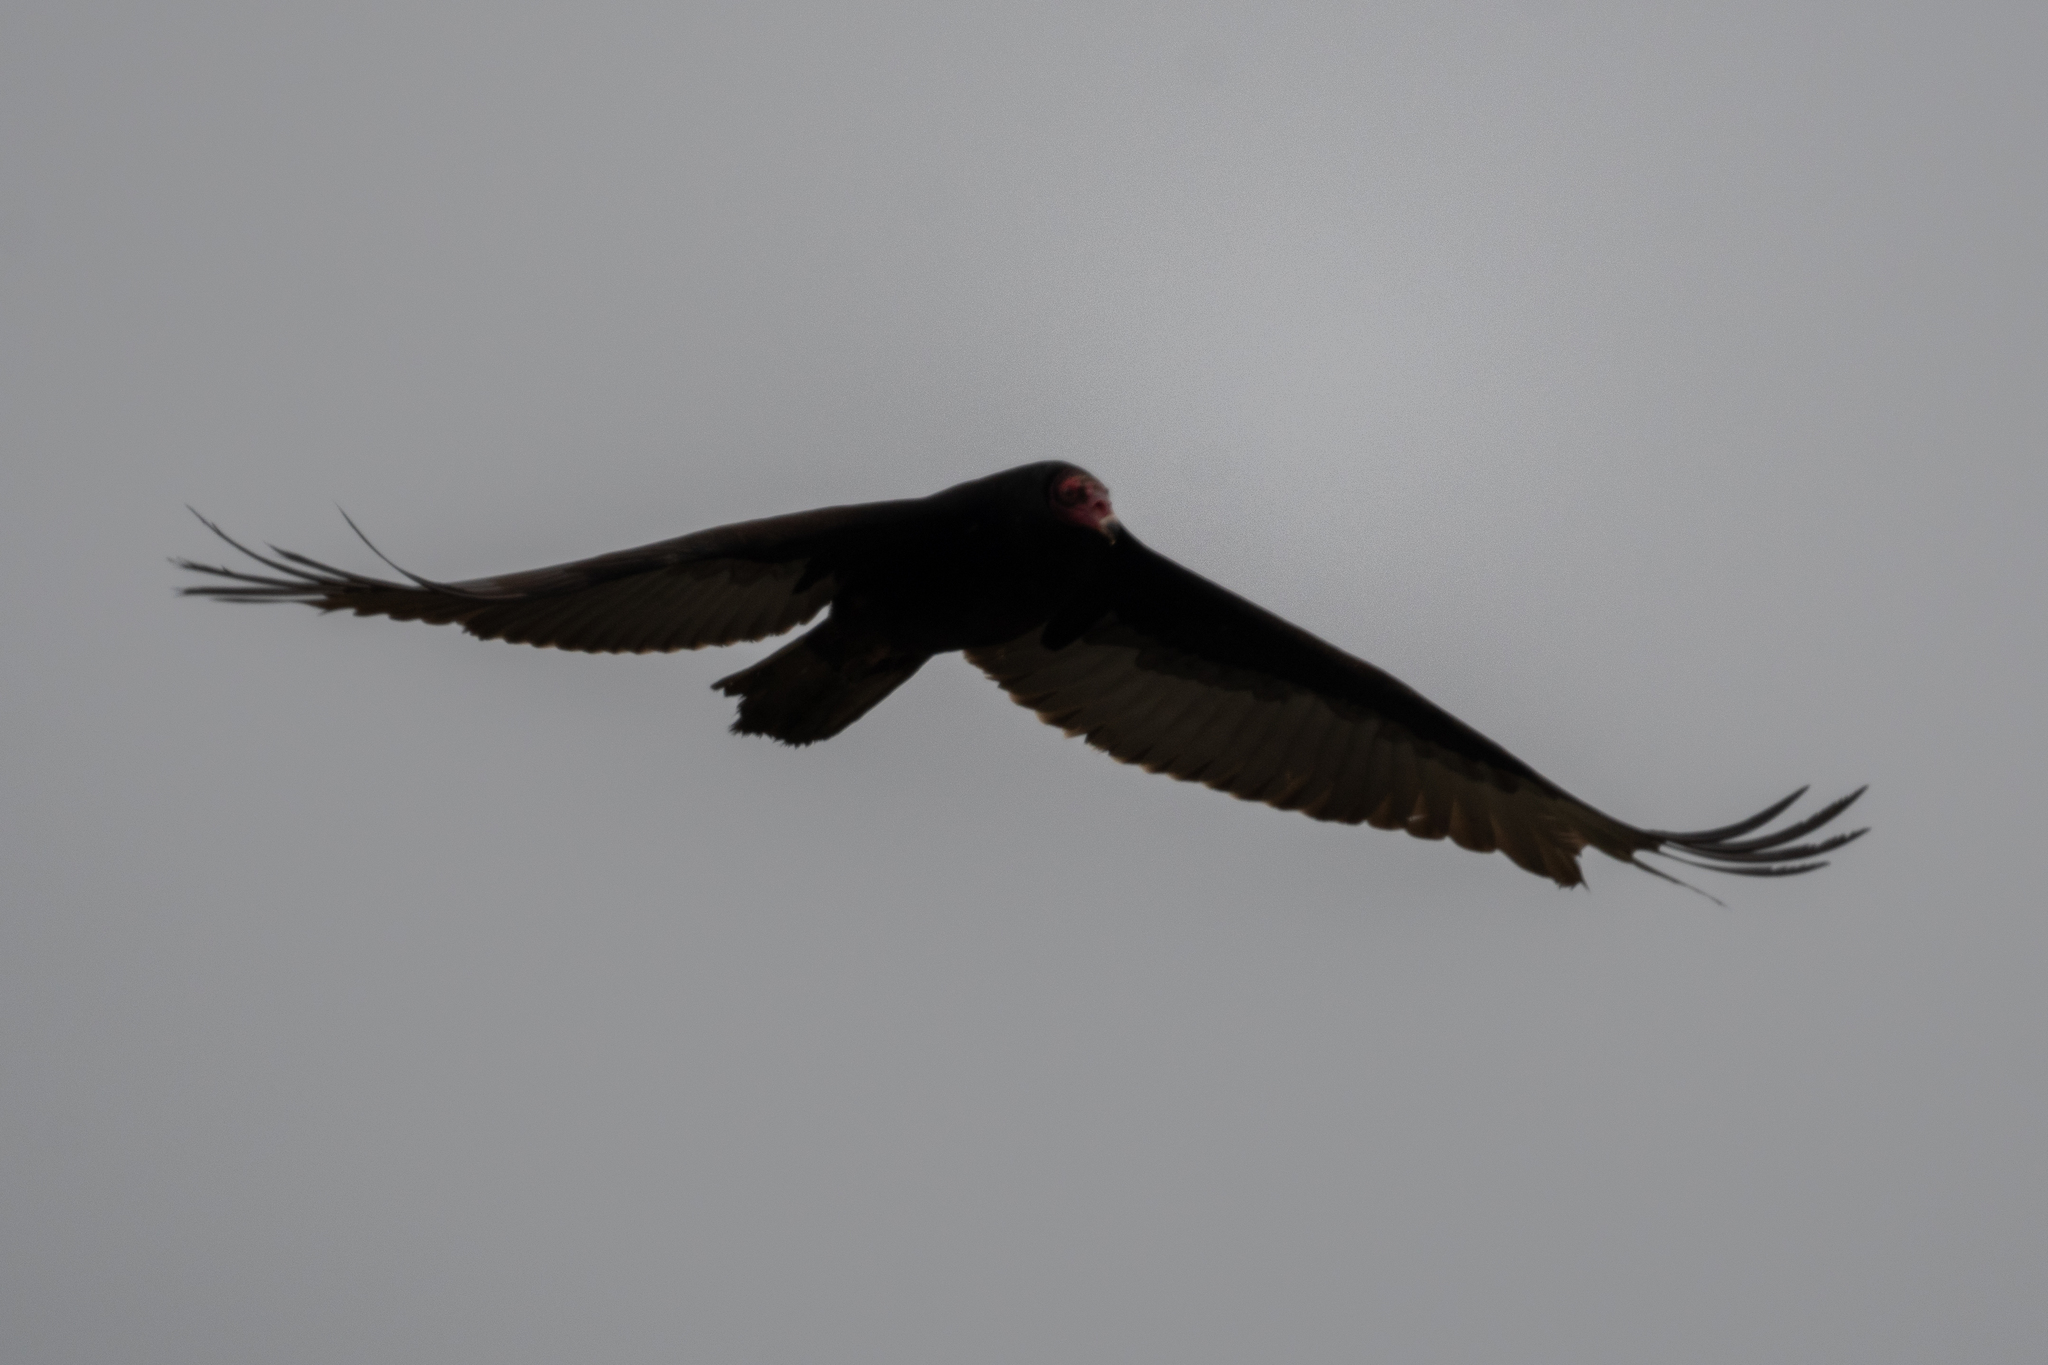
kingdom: Animalia
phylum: Chordata
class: Aves
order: Accipitriformes
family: Cathartidae
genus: Cathartes
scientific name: Cathartes aura
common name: Turkey vulture
